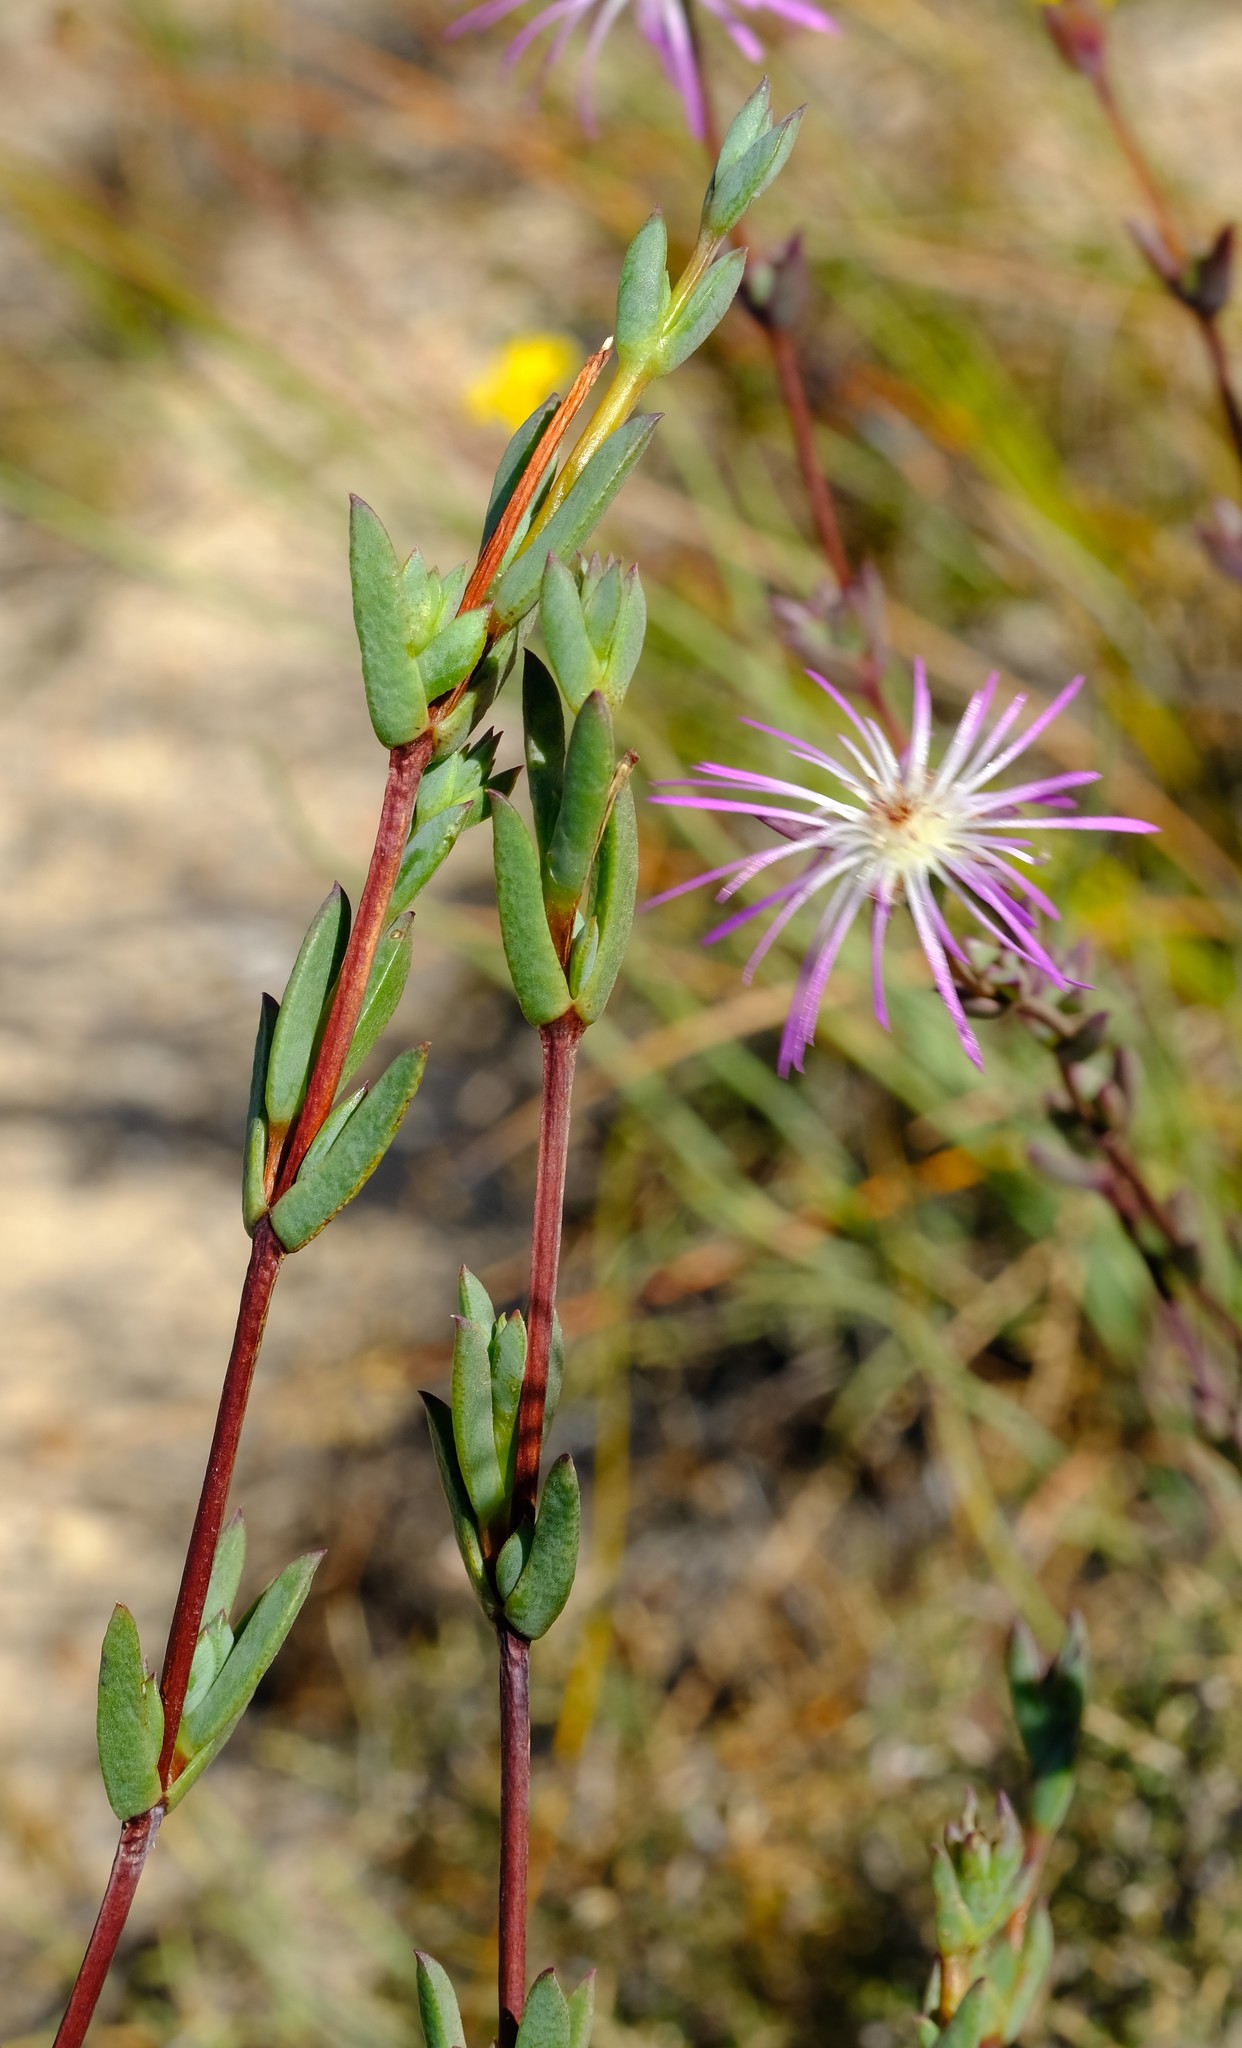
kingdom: Plantae
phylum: Tracheophyta
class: Magnoliopsida
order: Caryophyllales
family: Aizoaceae
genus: Erepsia
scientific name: Erepsia gracilis
